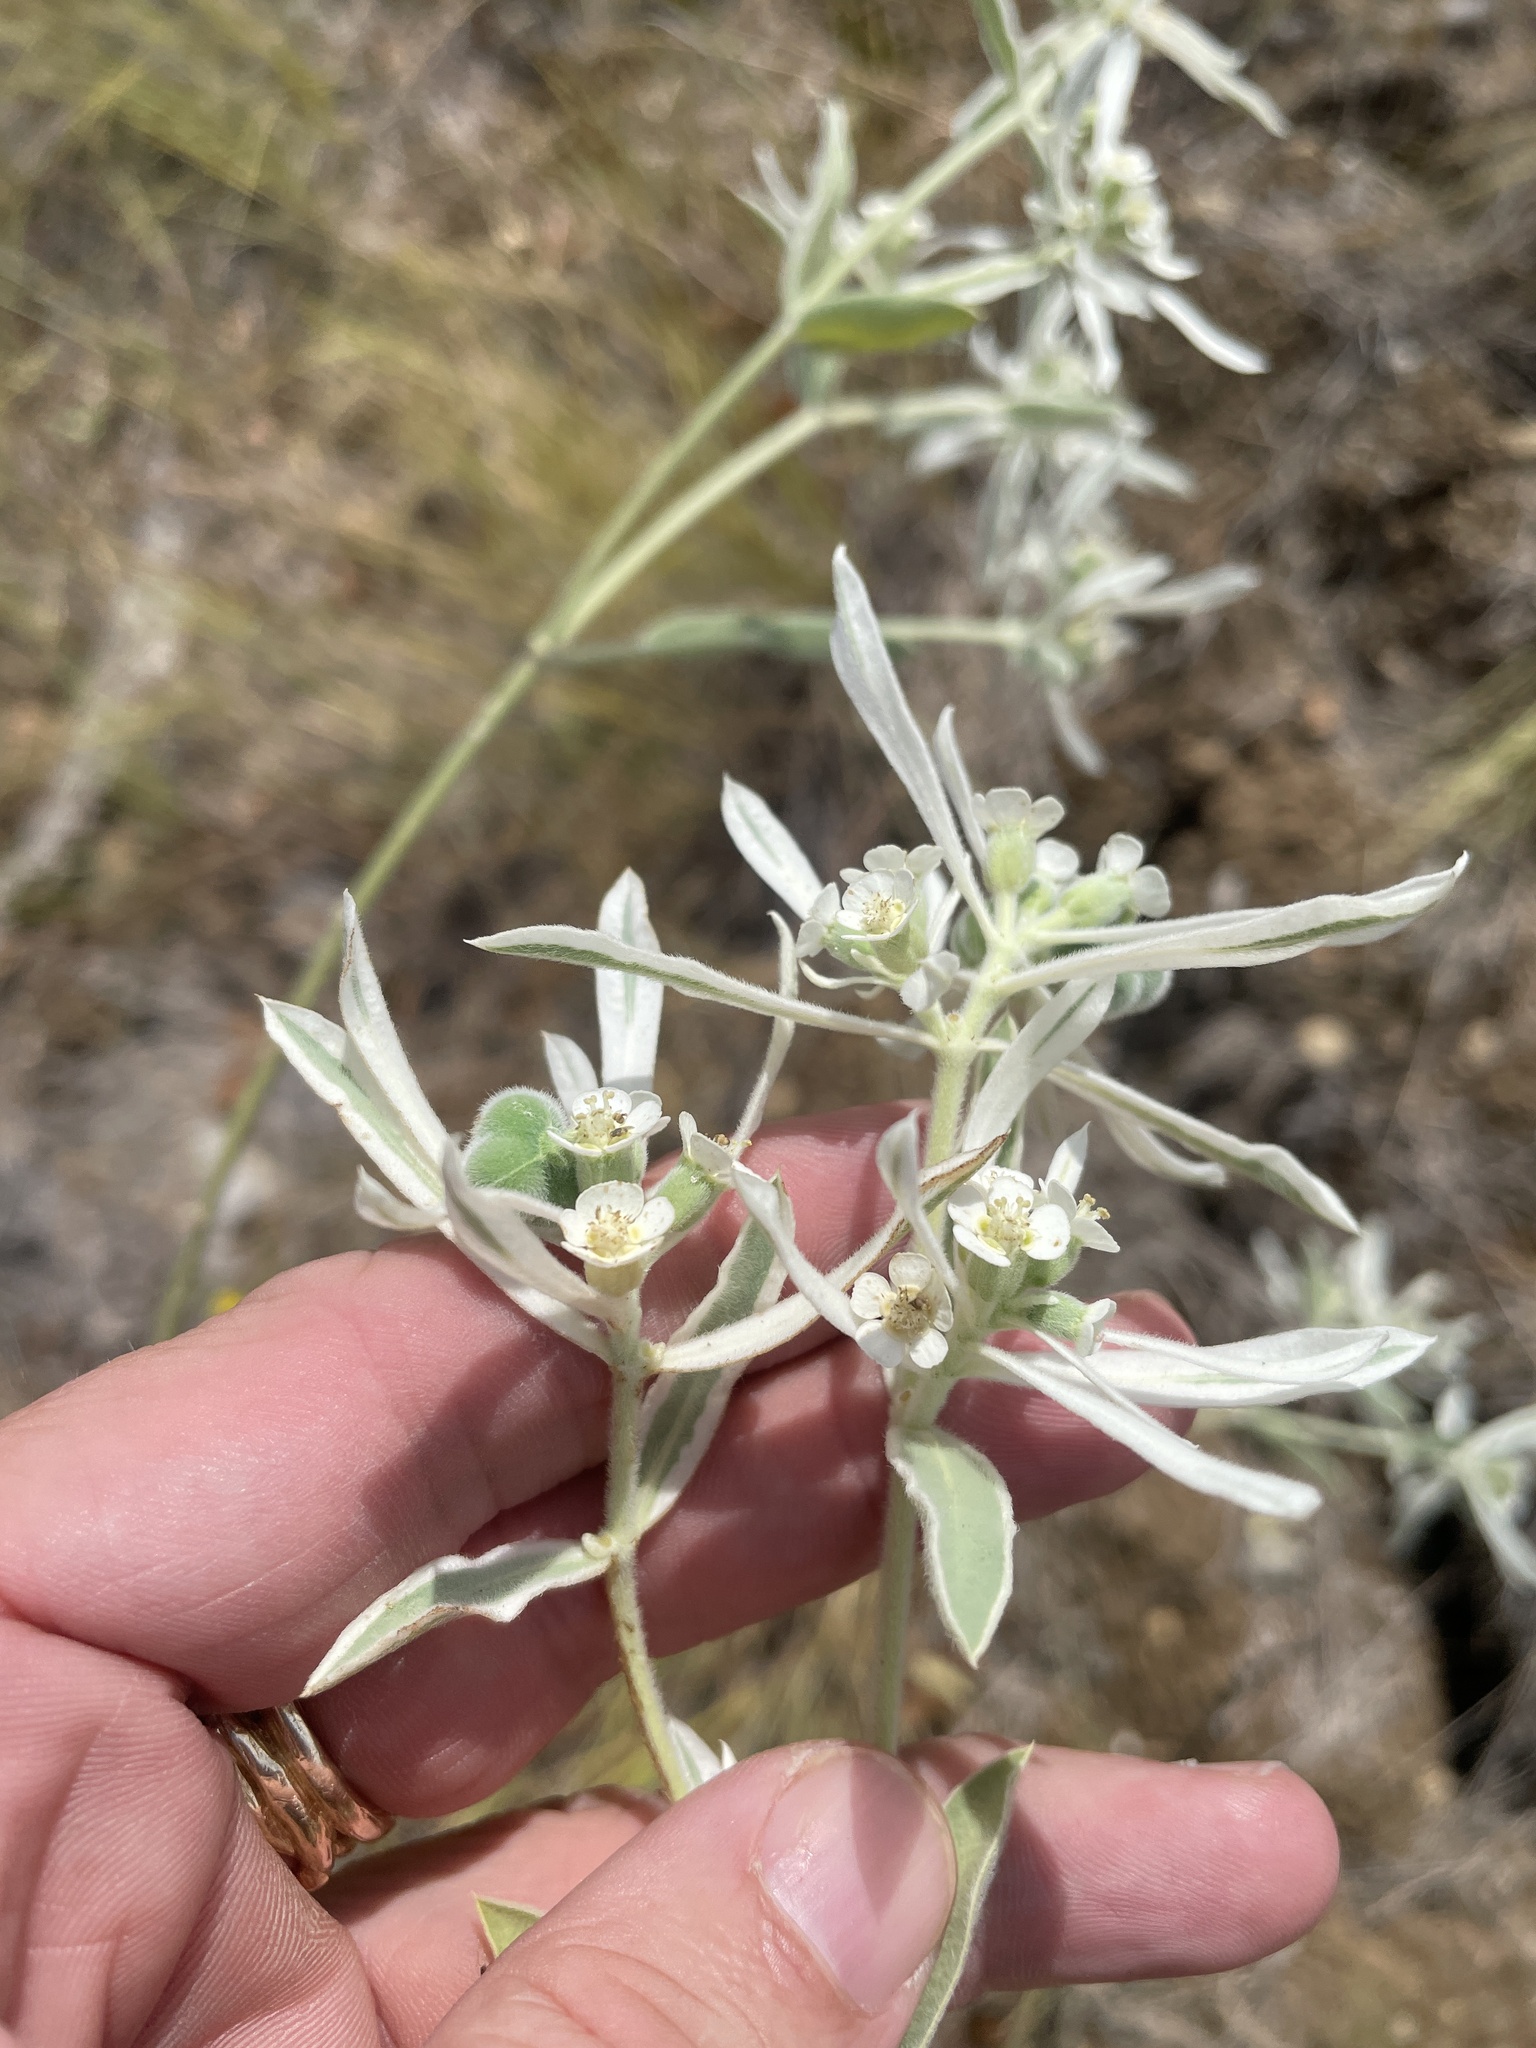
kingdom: Plantae
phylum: Tracheophyta
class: Magnoliopsida
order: Malpighiales
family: Euphorbiaceae
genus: Euphorbia
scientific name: Euphorbia bicolor
